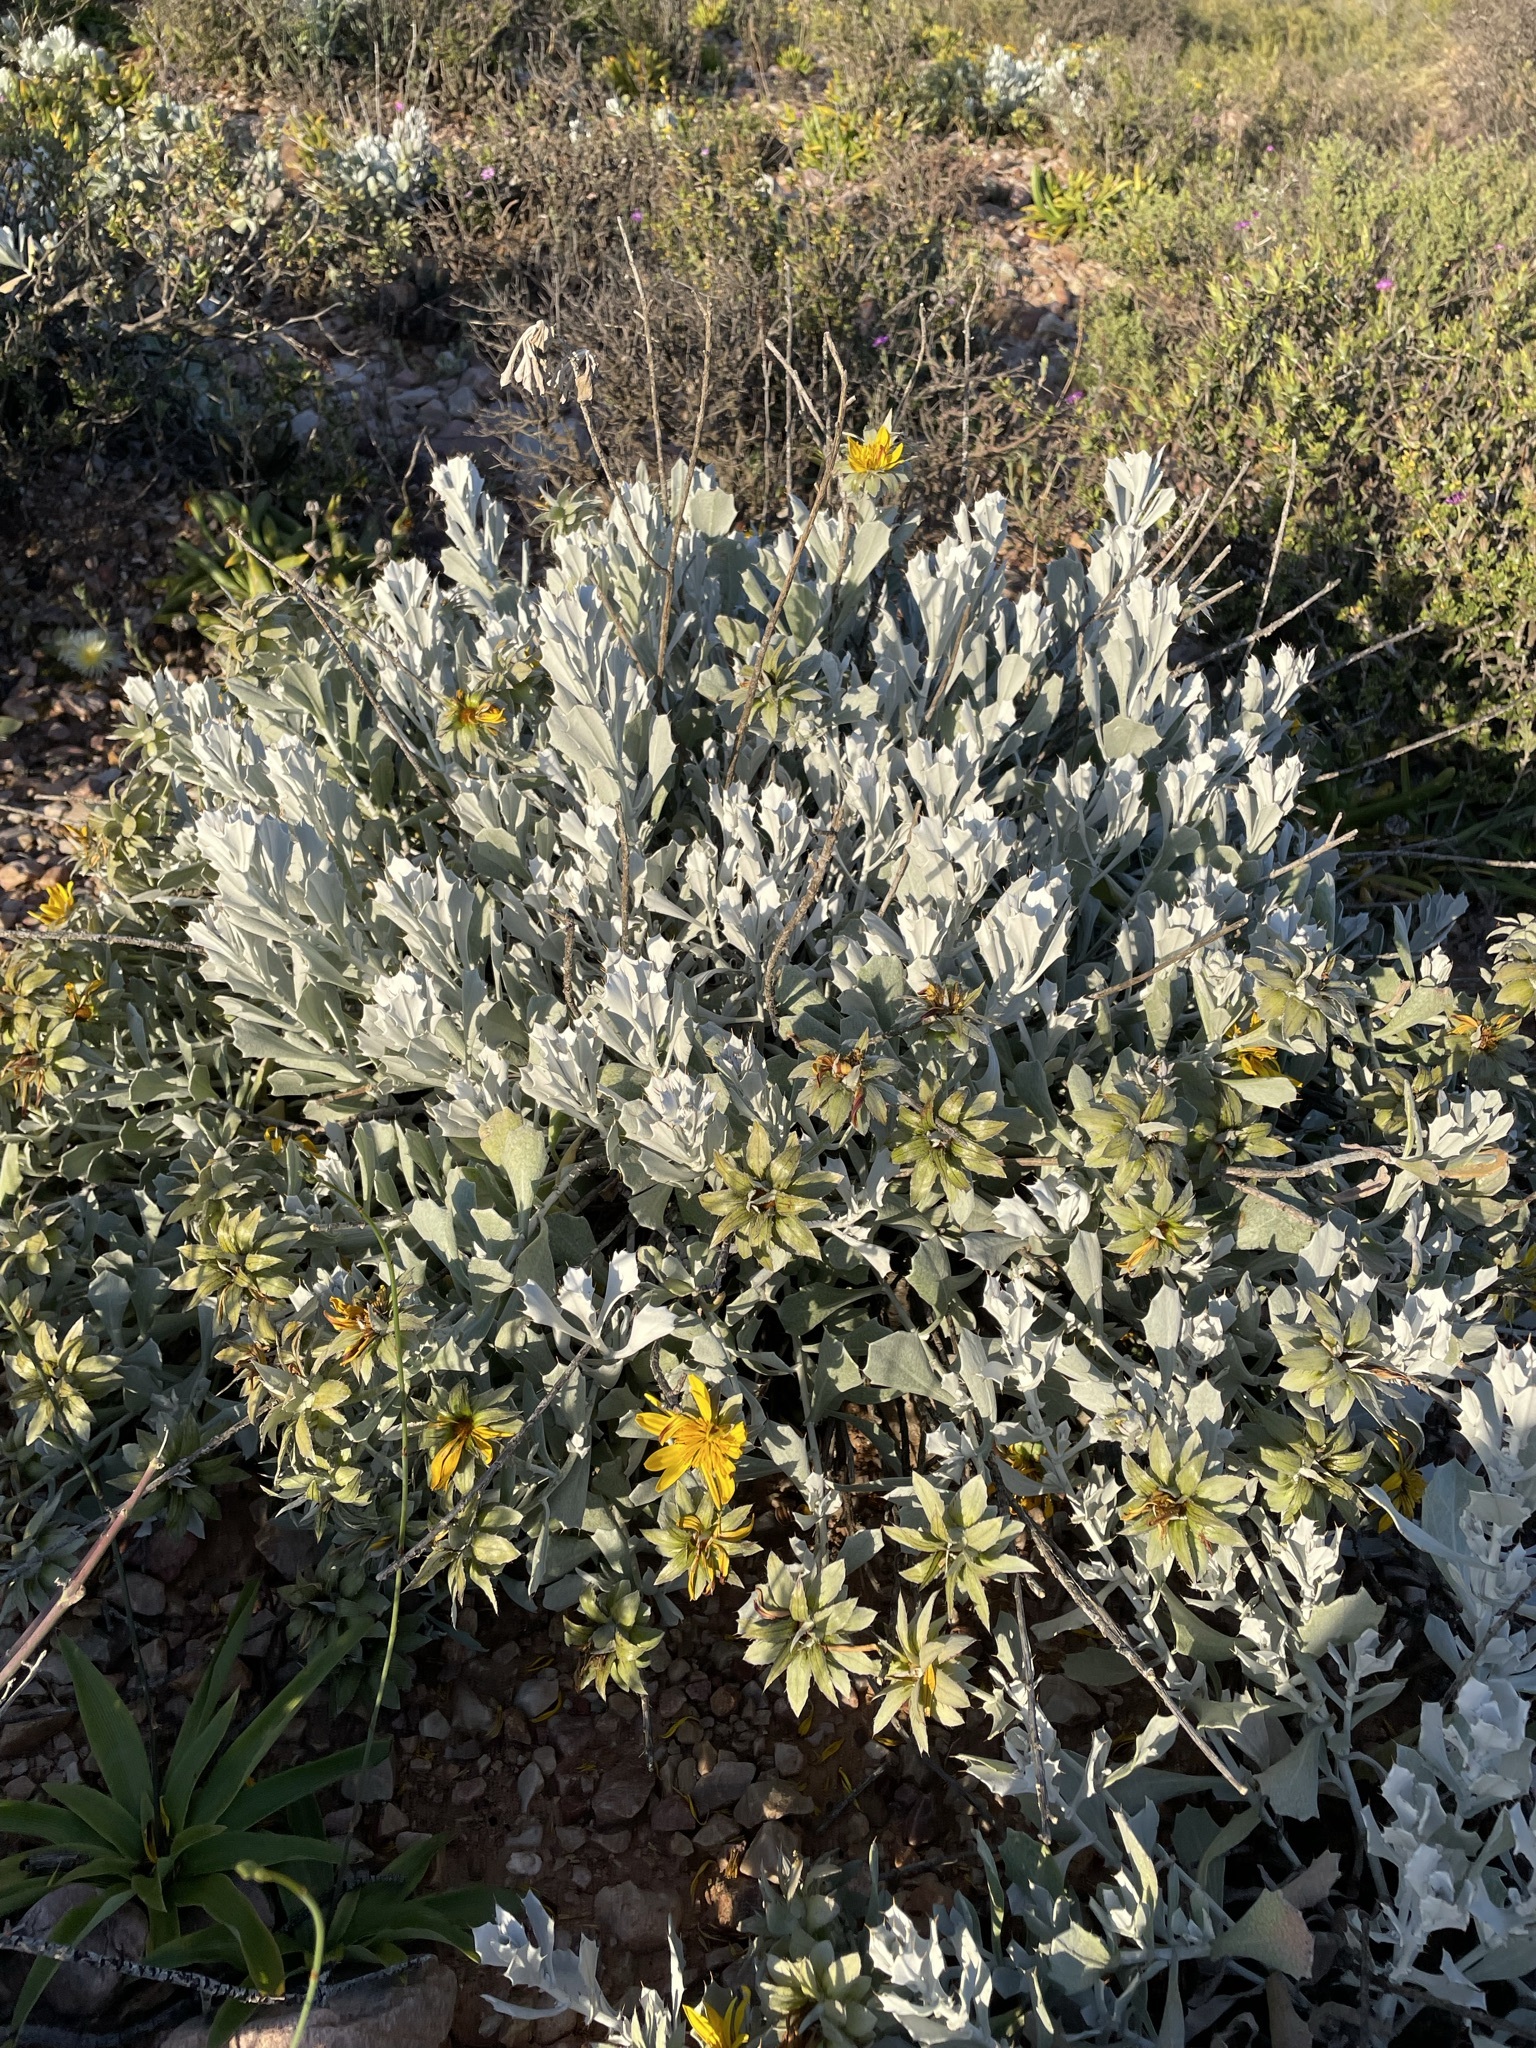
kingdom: Plantae
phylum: Tracheophyta
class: Magnoliopsida
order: Asterales
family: Asteraceae
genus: Berkheya
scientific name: Berkheya cuneata
